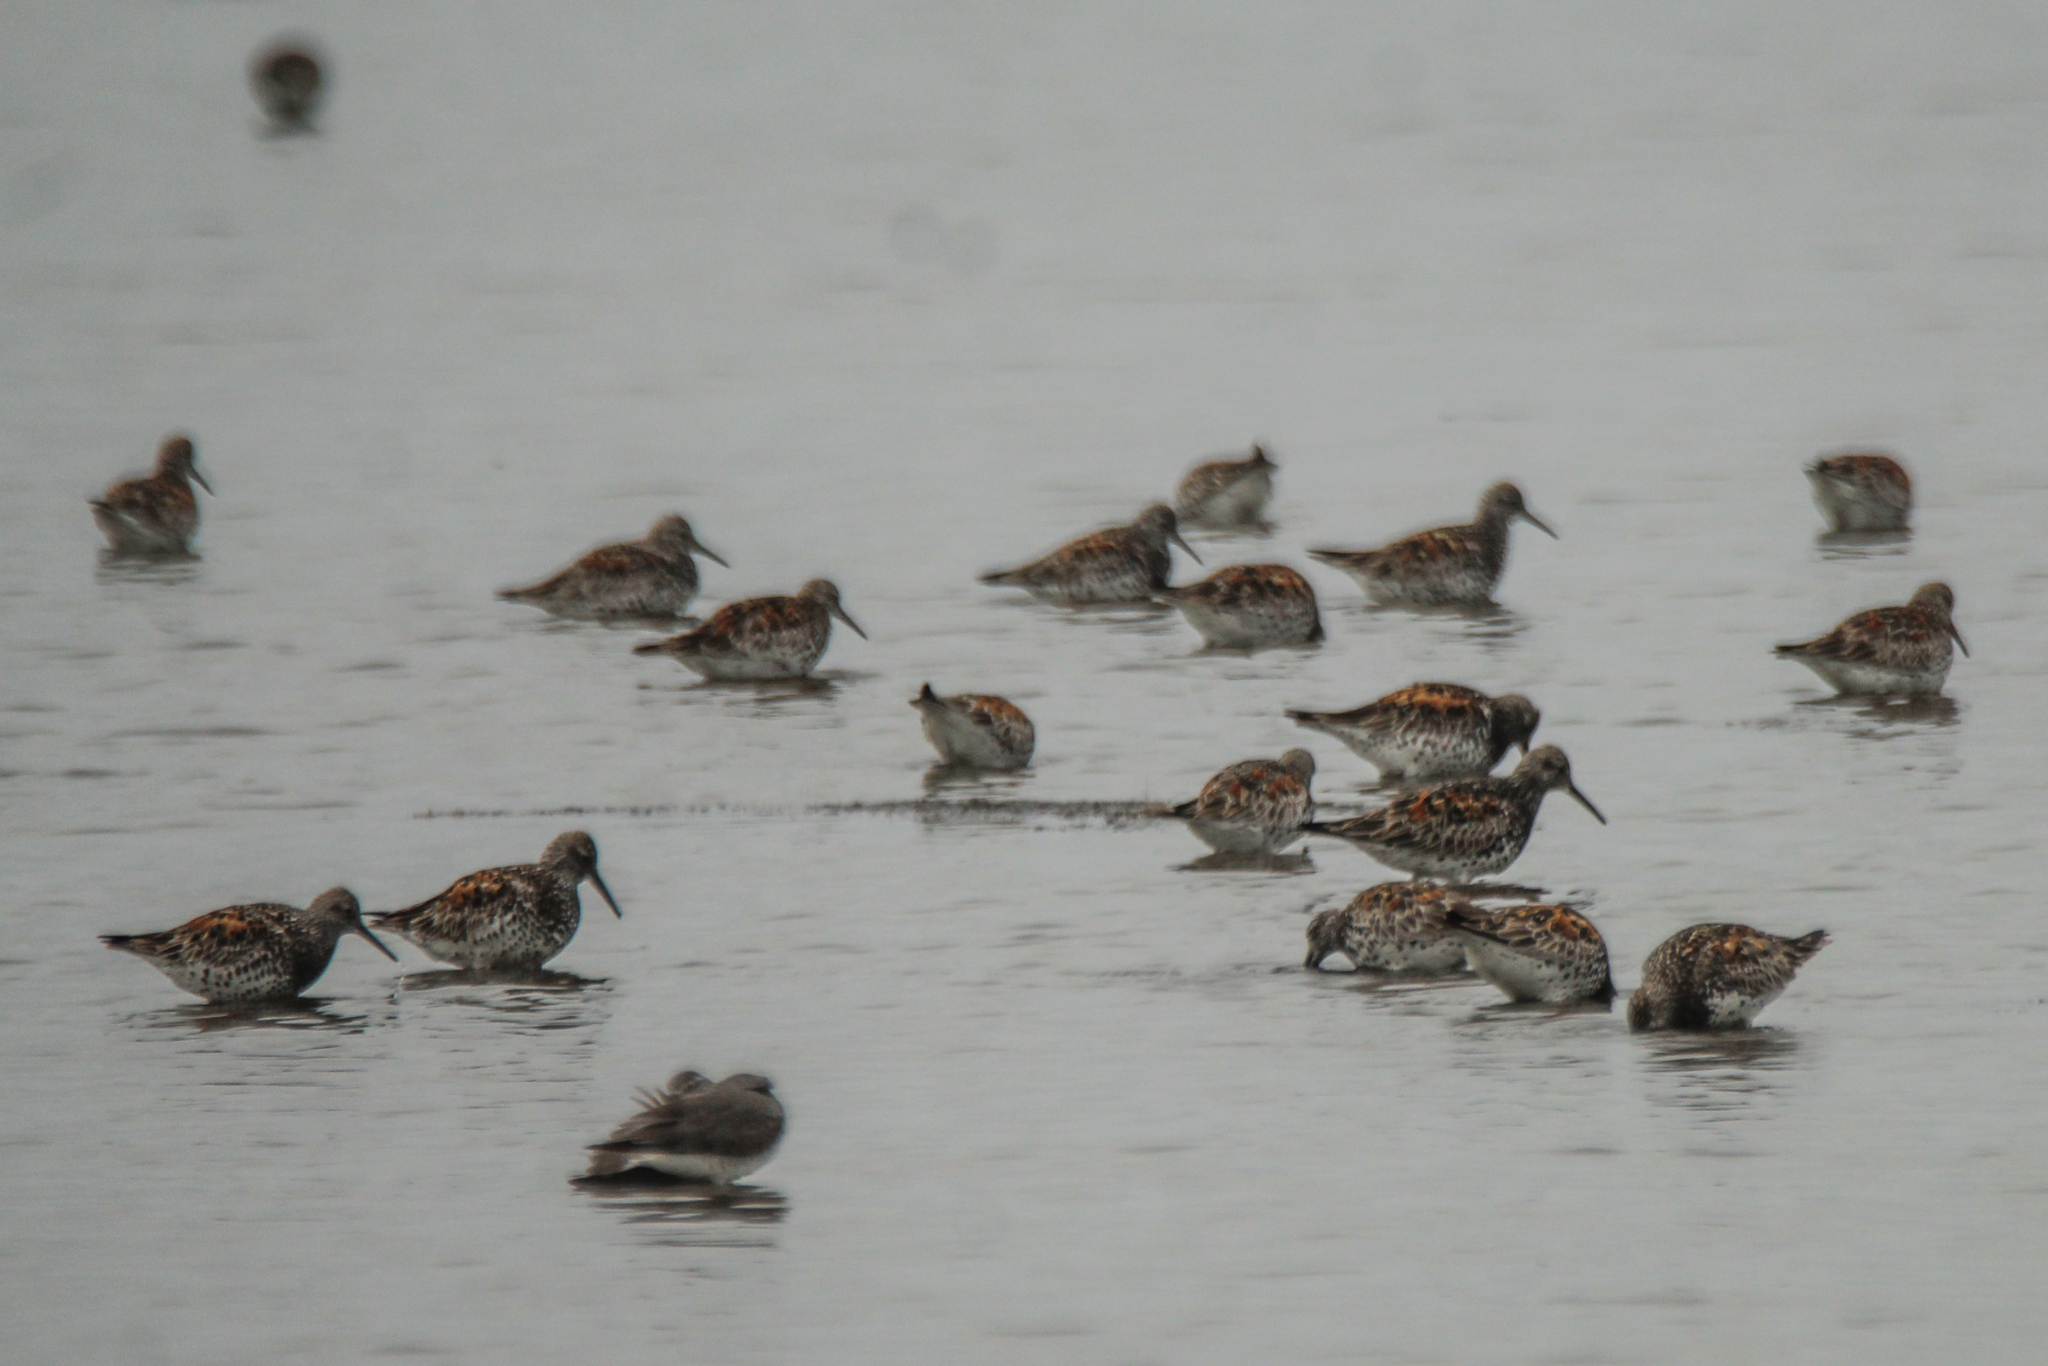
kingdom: Animalia
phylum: Chordata
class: Aves
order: Charadriiformes
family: Scolopacidae
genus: Calidris
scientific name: Calidris tenuirostris
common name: Great knot
